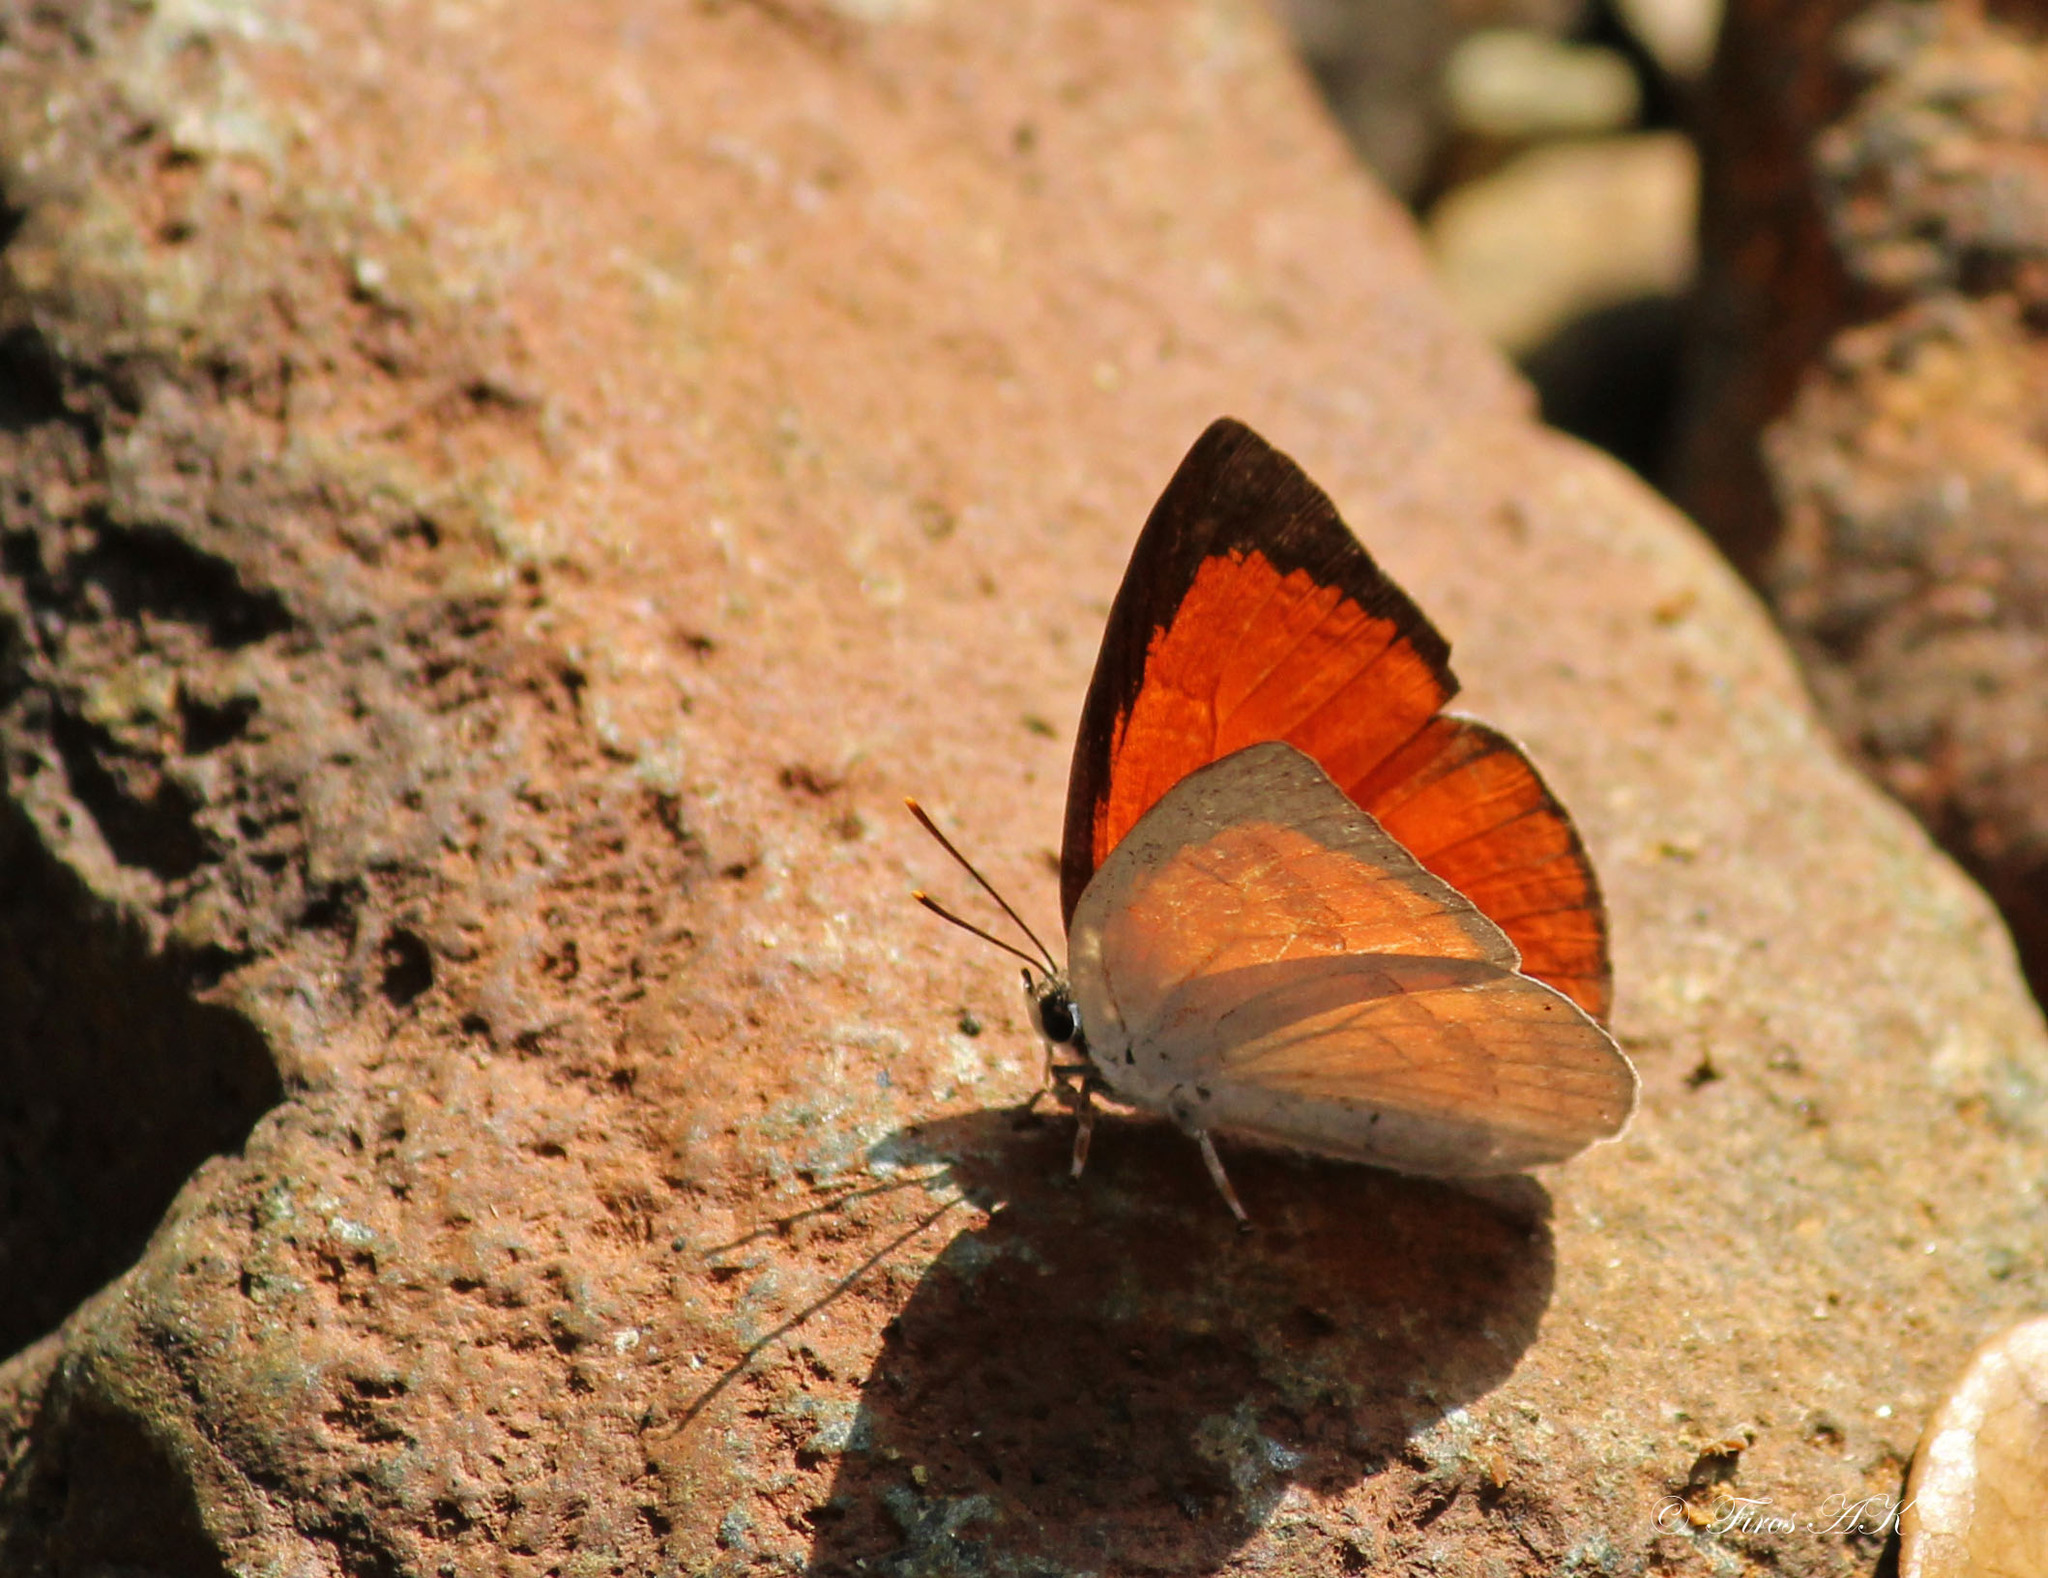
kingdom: Animalia
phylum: Arthropoda
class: Insecta
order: Lepidoptera
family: Lycaenidae
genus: Curetis
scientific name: Curetis thetis
